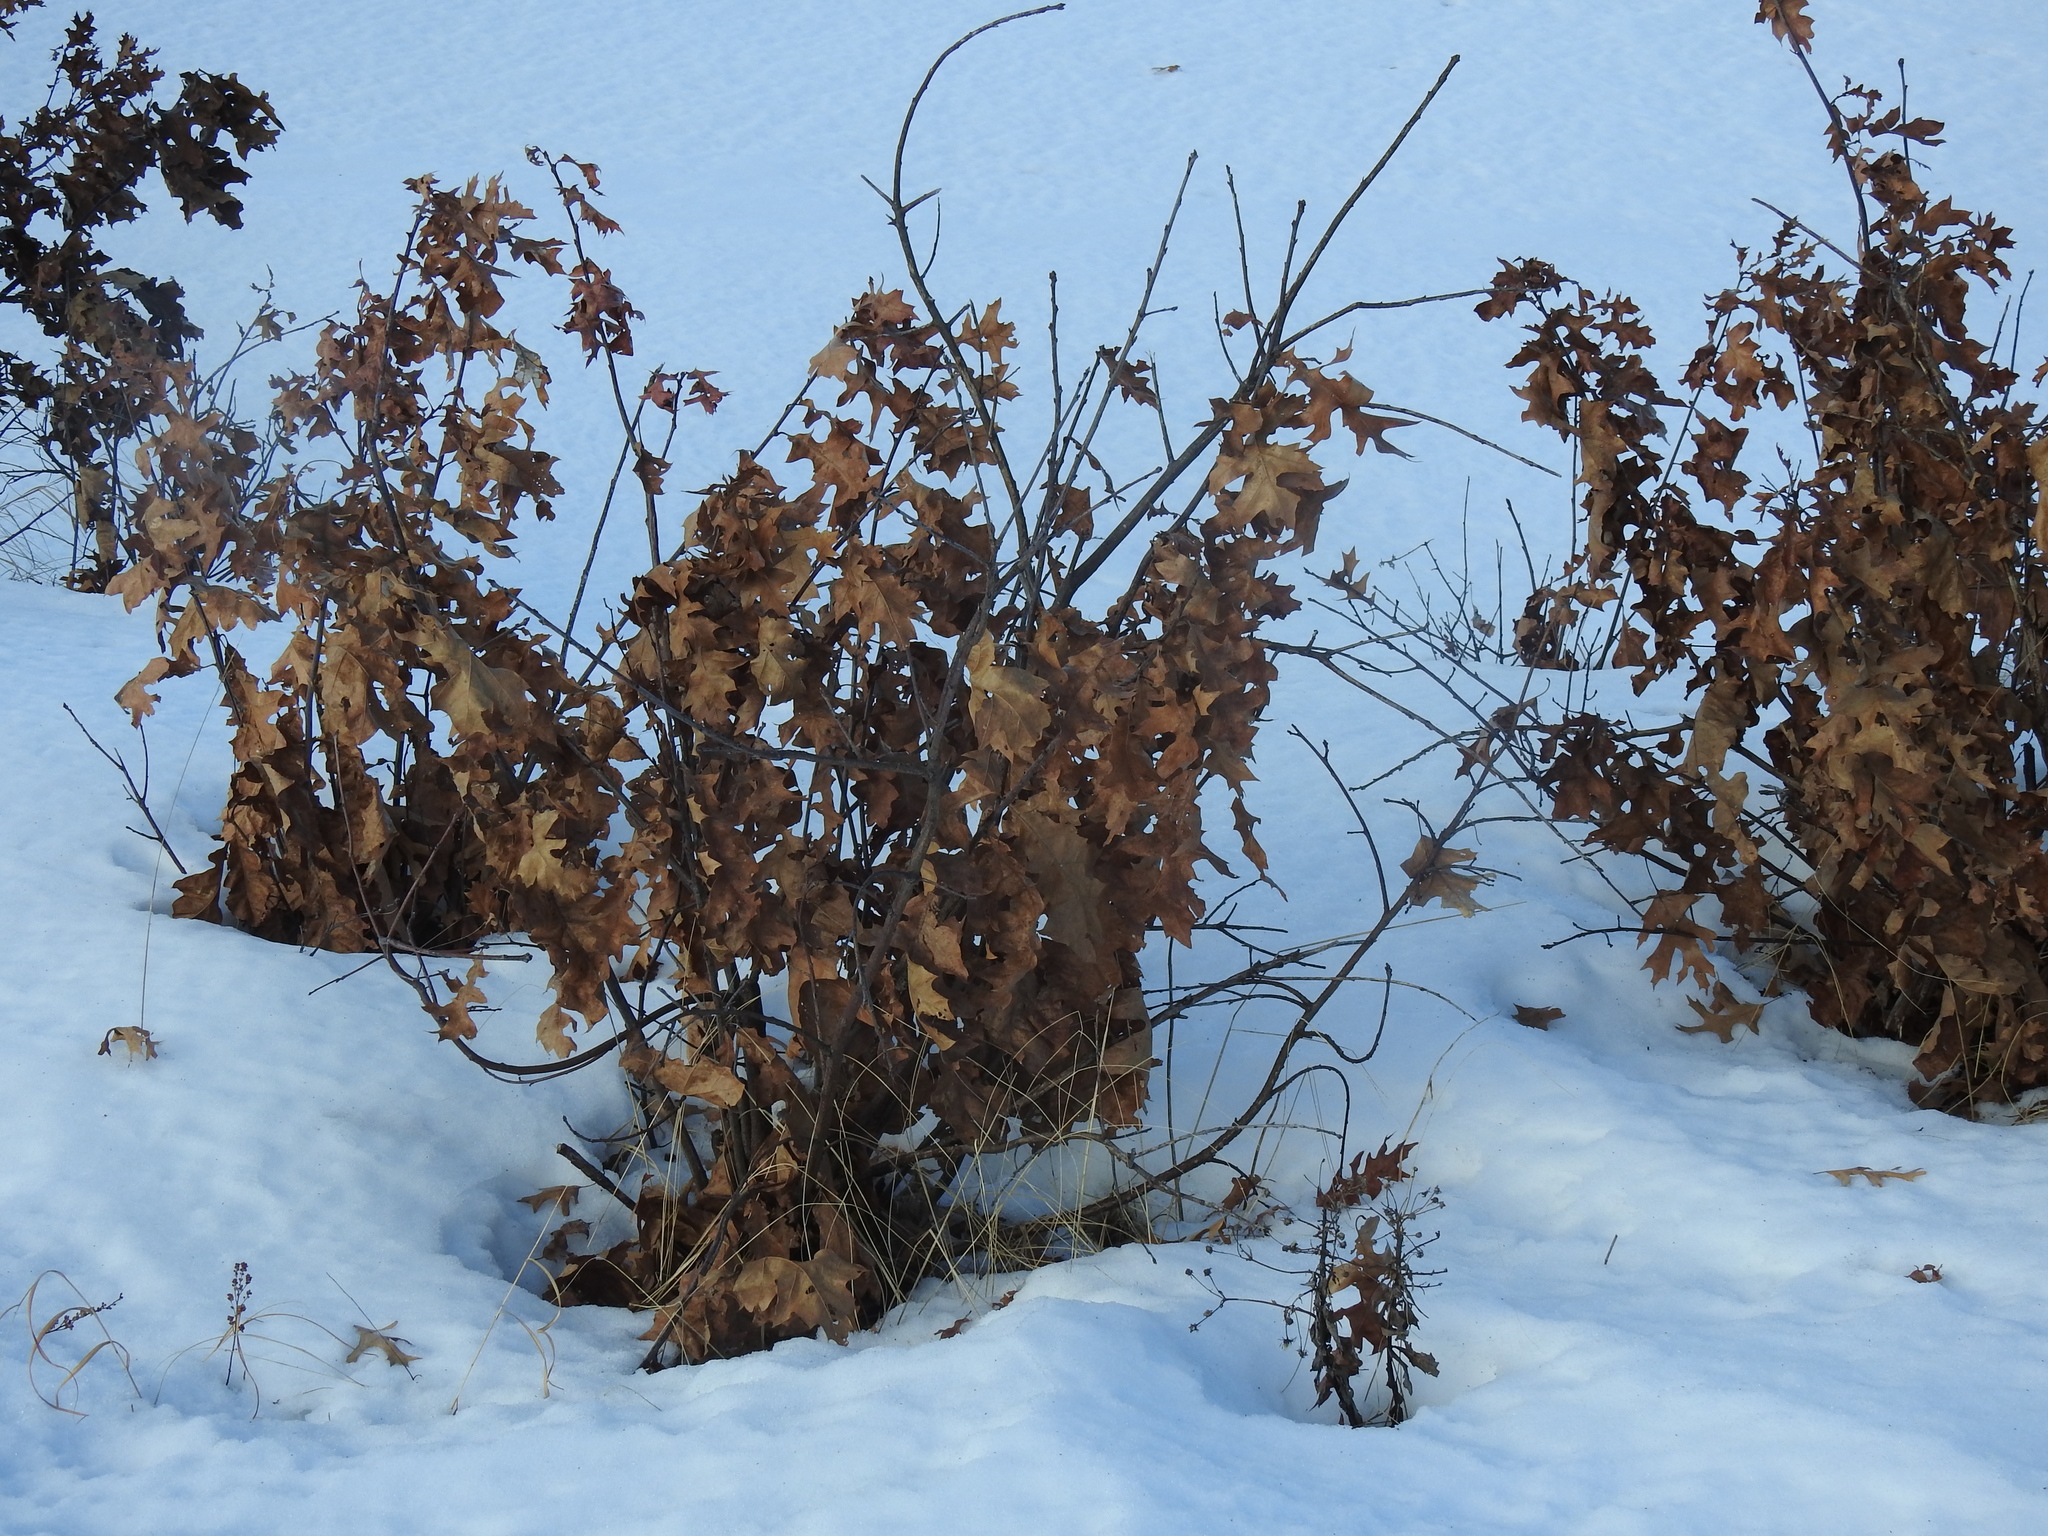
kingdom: Plantae
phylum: Tracheophyta
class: Magnoliopsida
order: Fagales
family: Fagaceae
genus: Quercus
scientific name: Quercus
